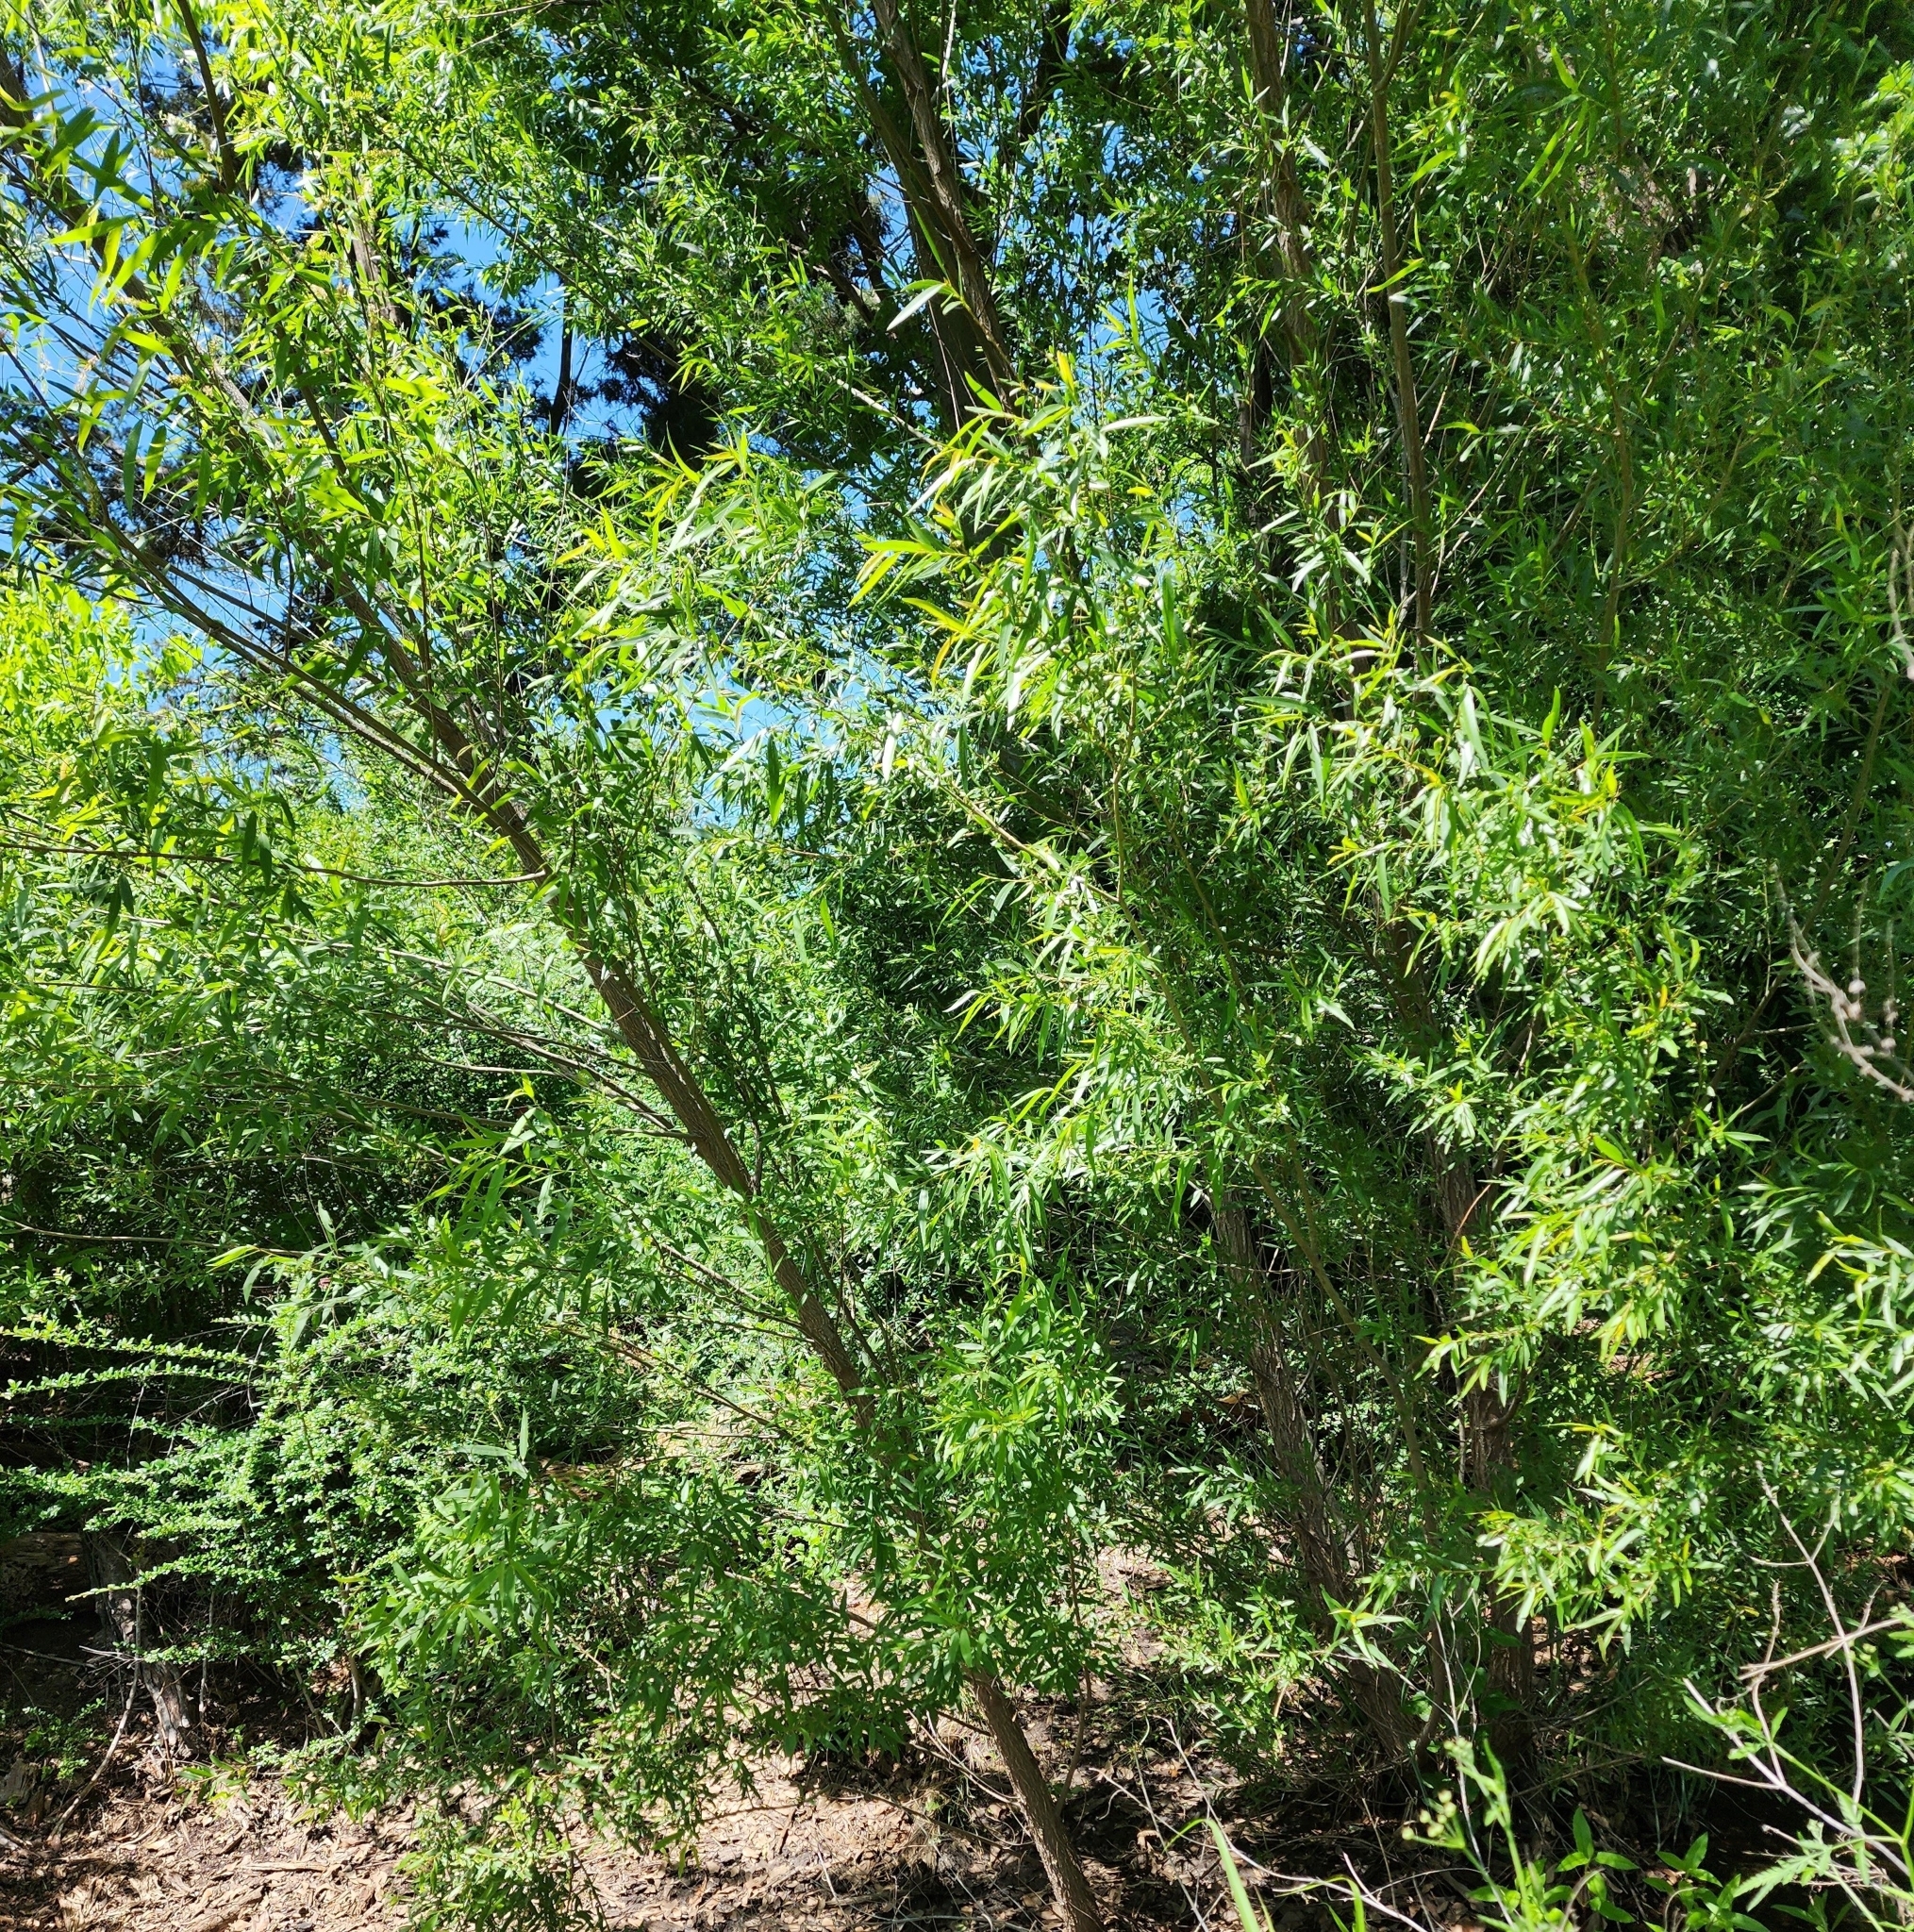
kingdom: Plantae
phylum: Tracheophyta
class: Magnoliopsida
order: Malpighiales
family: Salicaceae
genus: Salix
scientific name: Salix nigra
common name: Black willow
